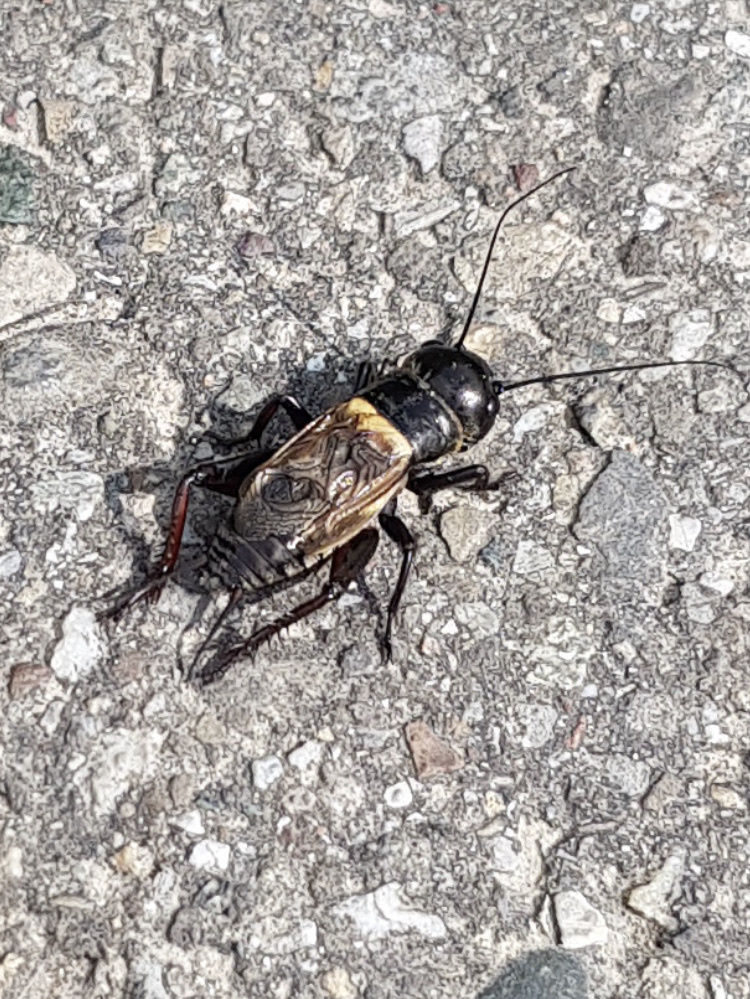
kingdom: Animalia
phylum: Arthropoda
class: Insecta
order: Orthoptera
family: Gryllidae
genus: Gryllus
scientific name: Gryllus campestris
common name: Field cricket
